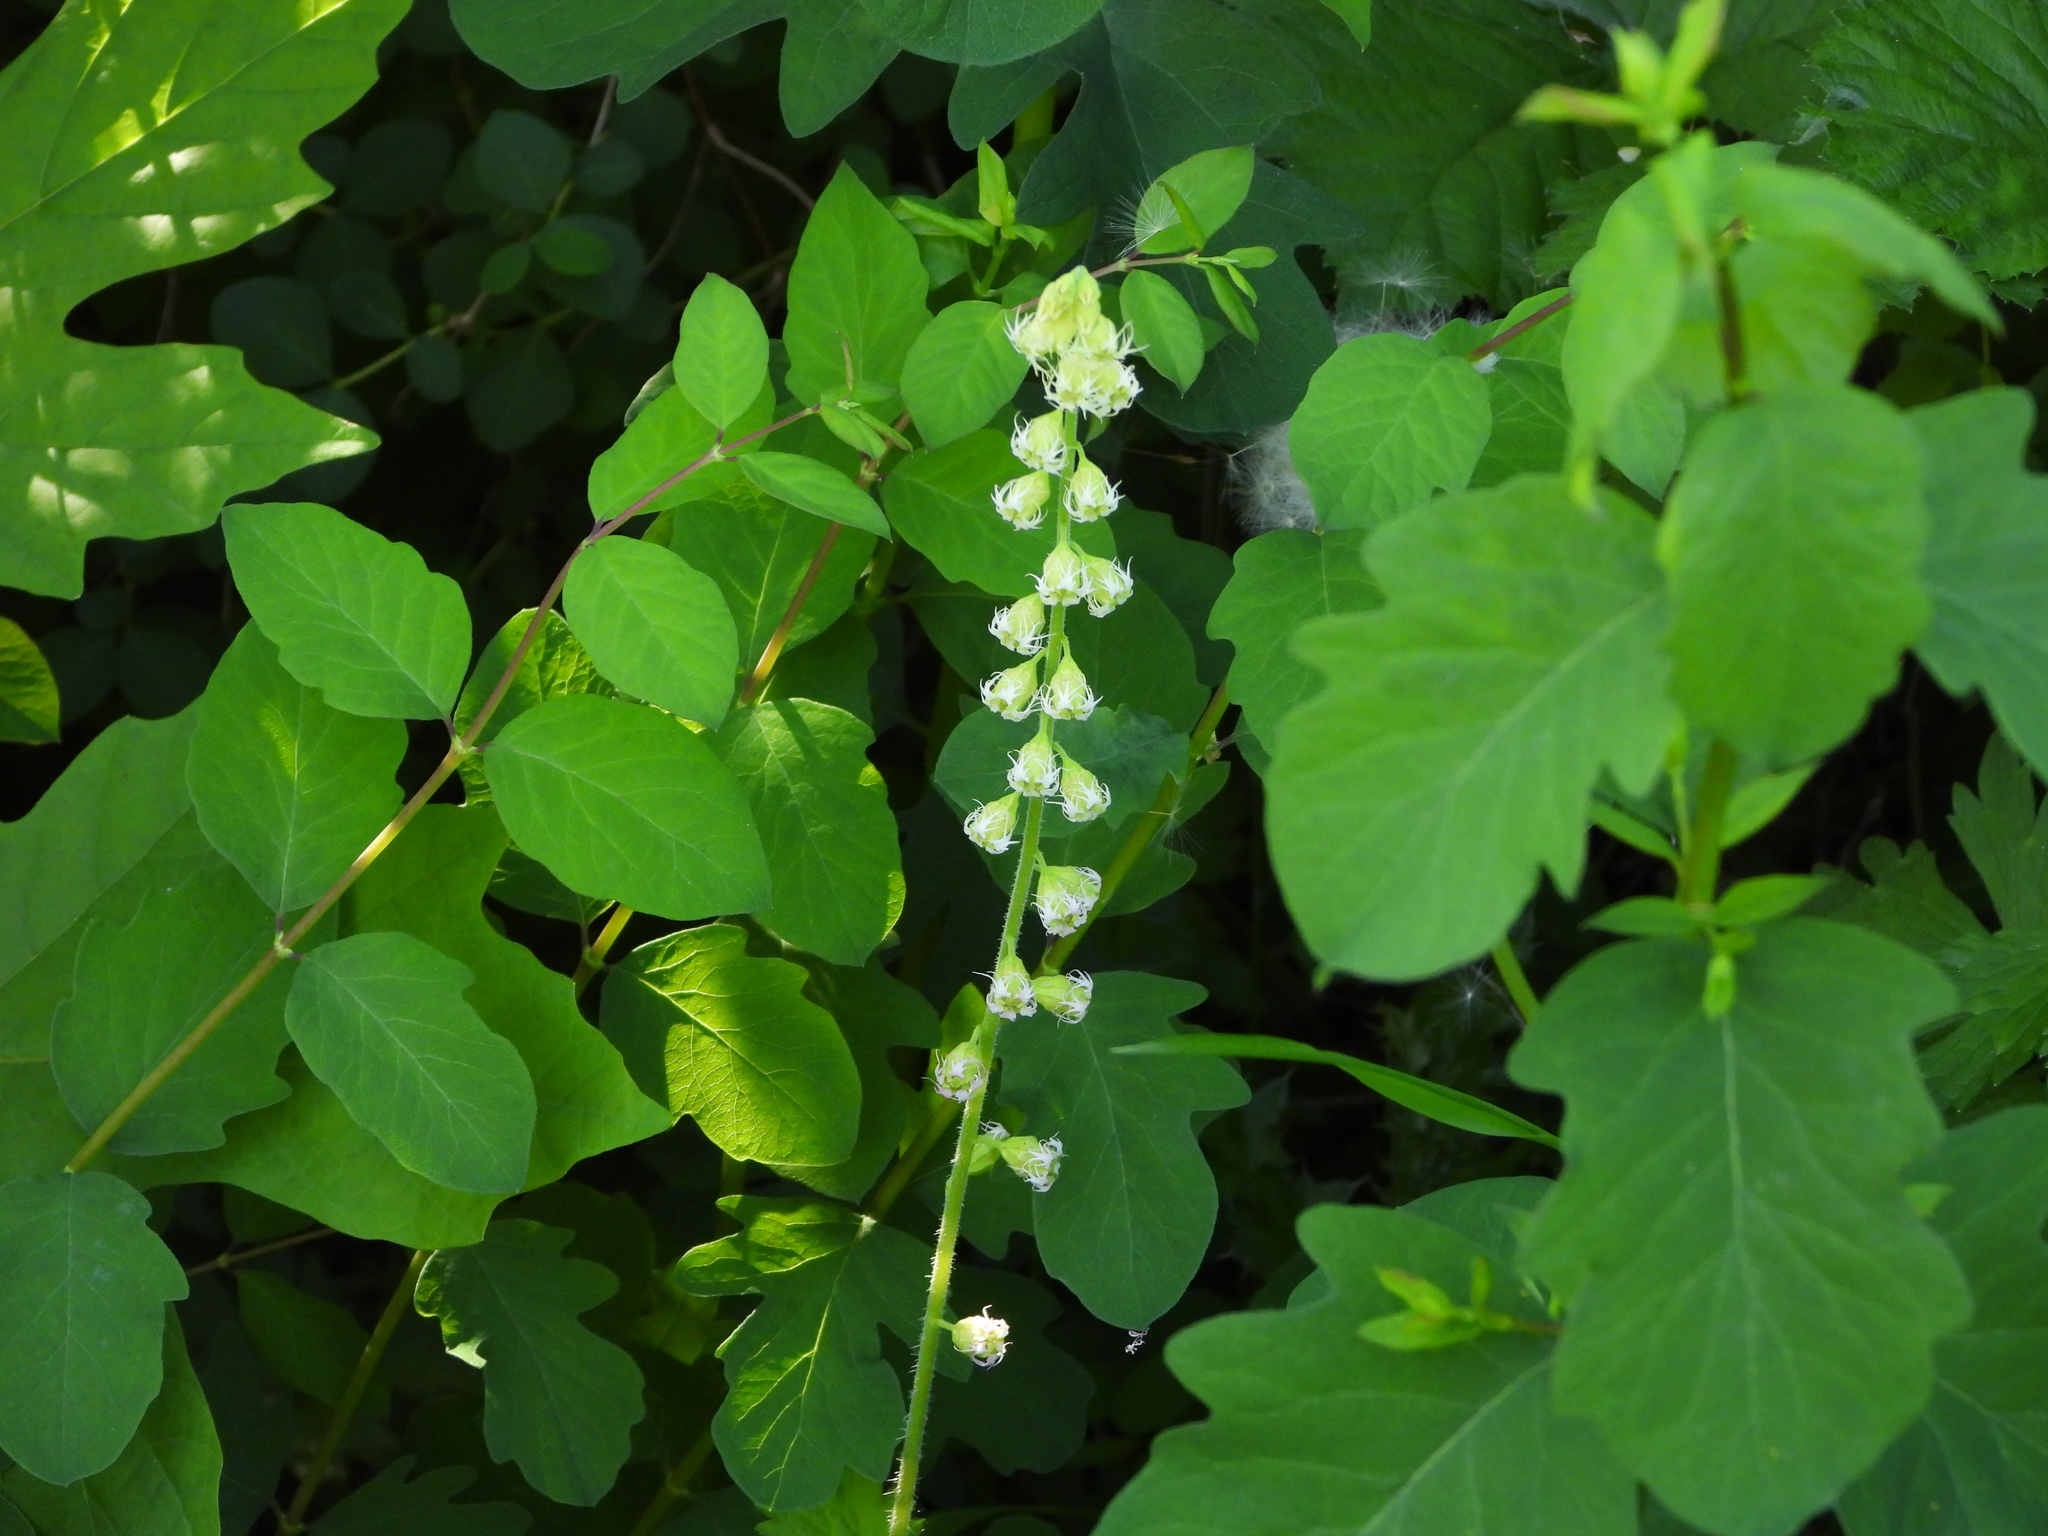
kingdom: Plantae
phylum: Tracheophyta
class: Magnoliopsida
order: Saxifragales
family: Saxifragaceae
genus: Tellima
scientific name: Tellima grandiflora
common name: Fringecups
